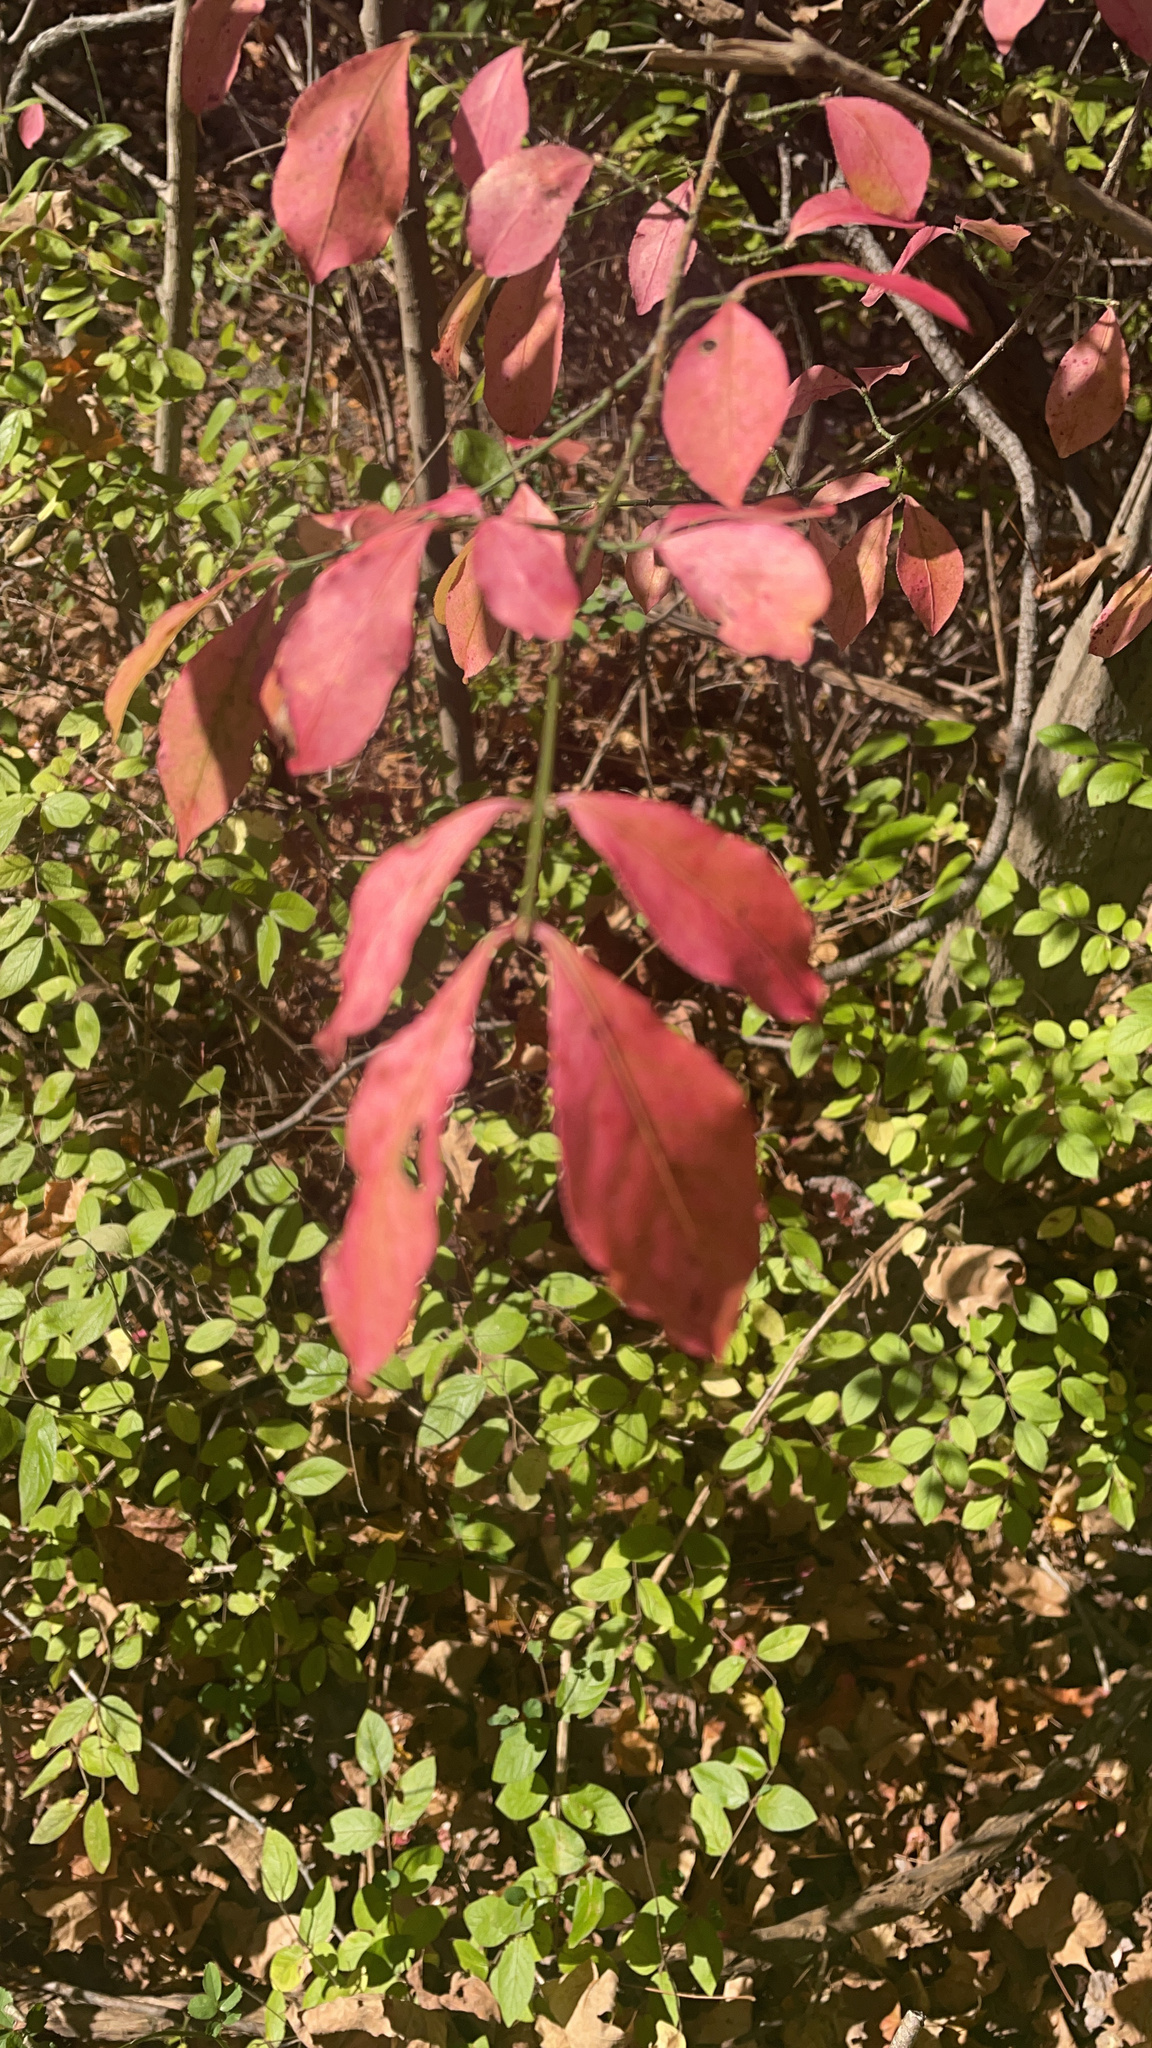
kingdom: Plantae
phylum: Tracheophyta
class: Magnoliopsida
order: Celastrales
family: Celastraceae
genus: Euonymus
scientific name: Euonymus alatus
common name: Winged euonymus
